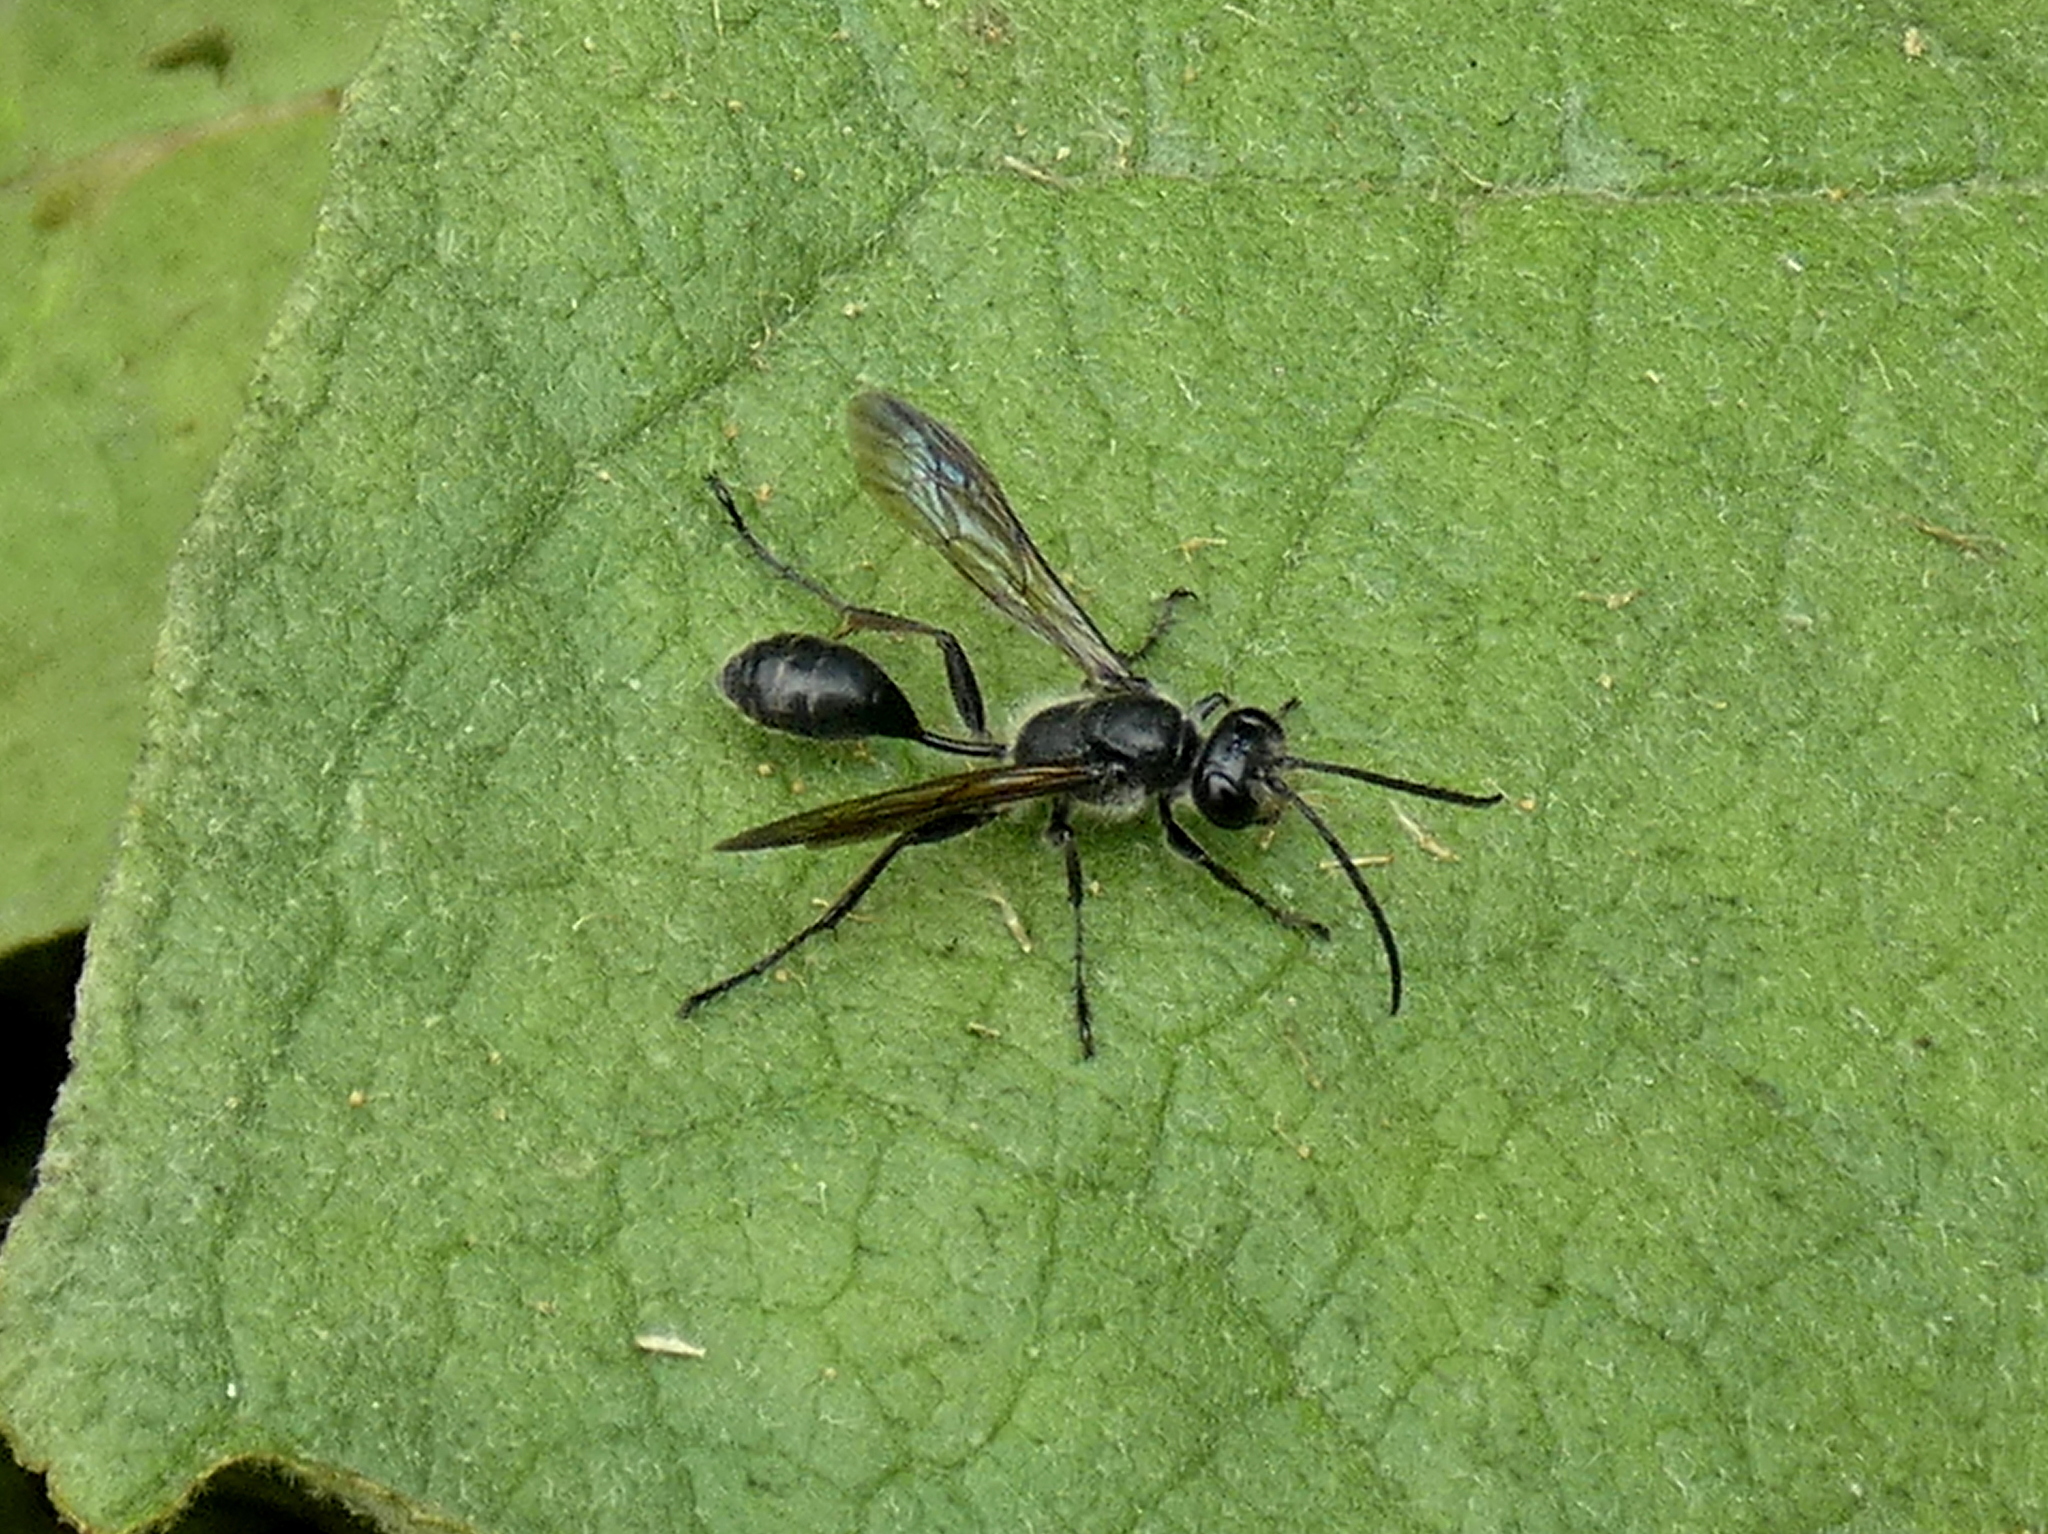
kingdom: Animalia
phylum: Arthropoda
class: Insecta
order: Hymenoptera
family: Sphecidae
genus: Isodontia
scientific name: Isodontia mexicana
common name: Mud dauber
